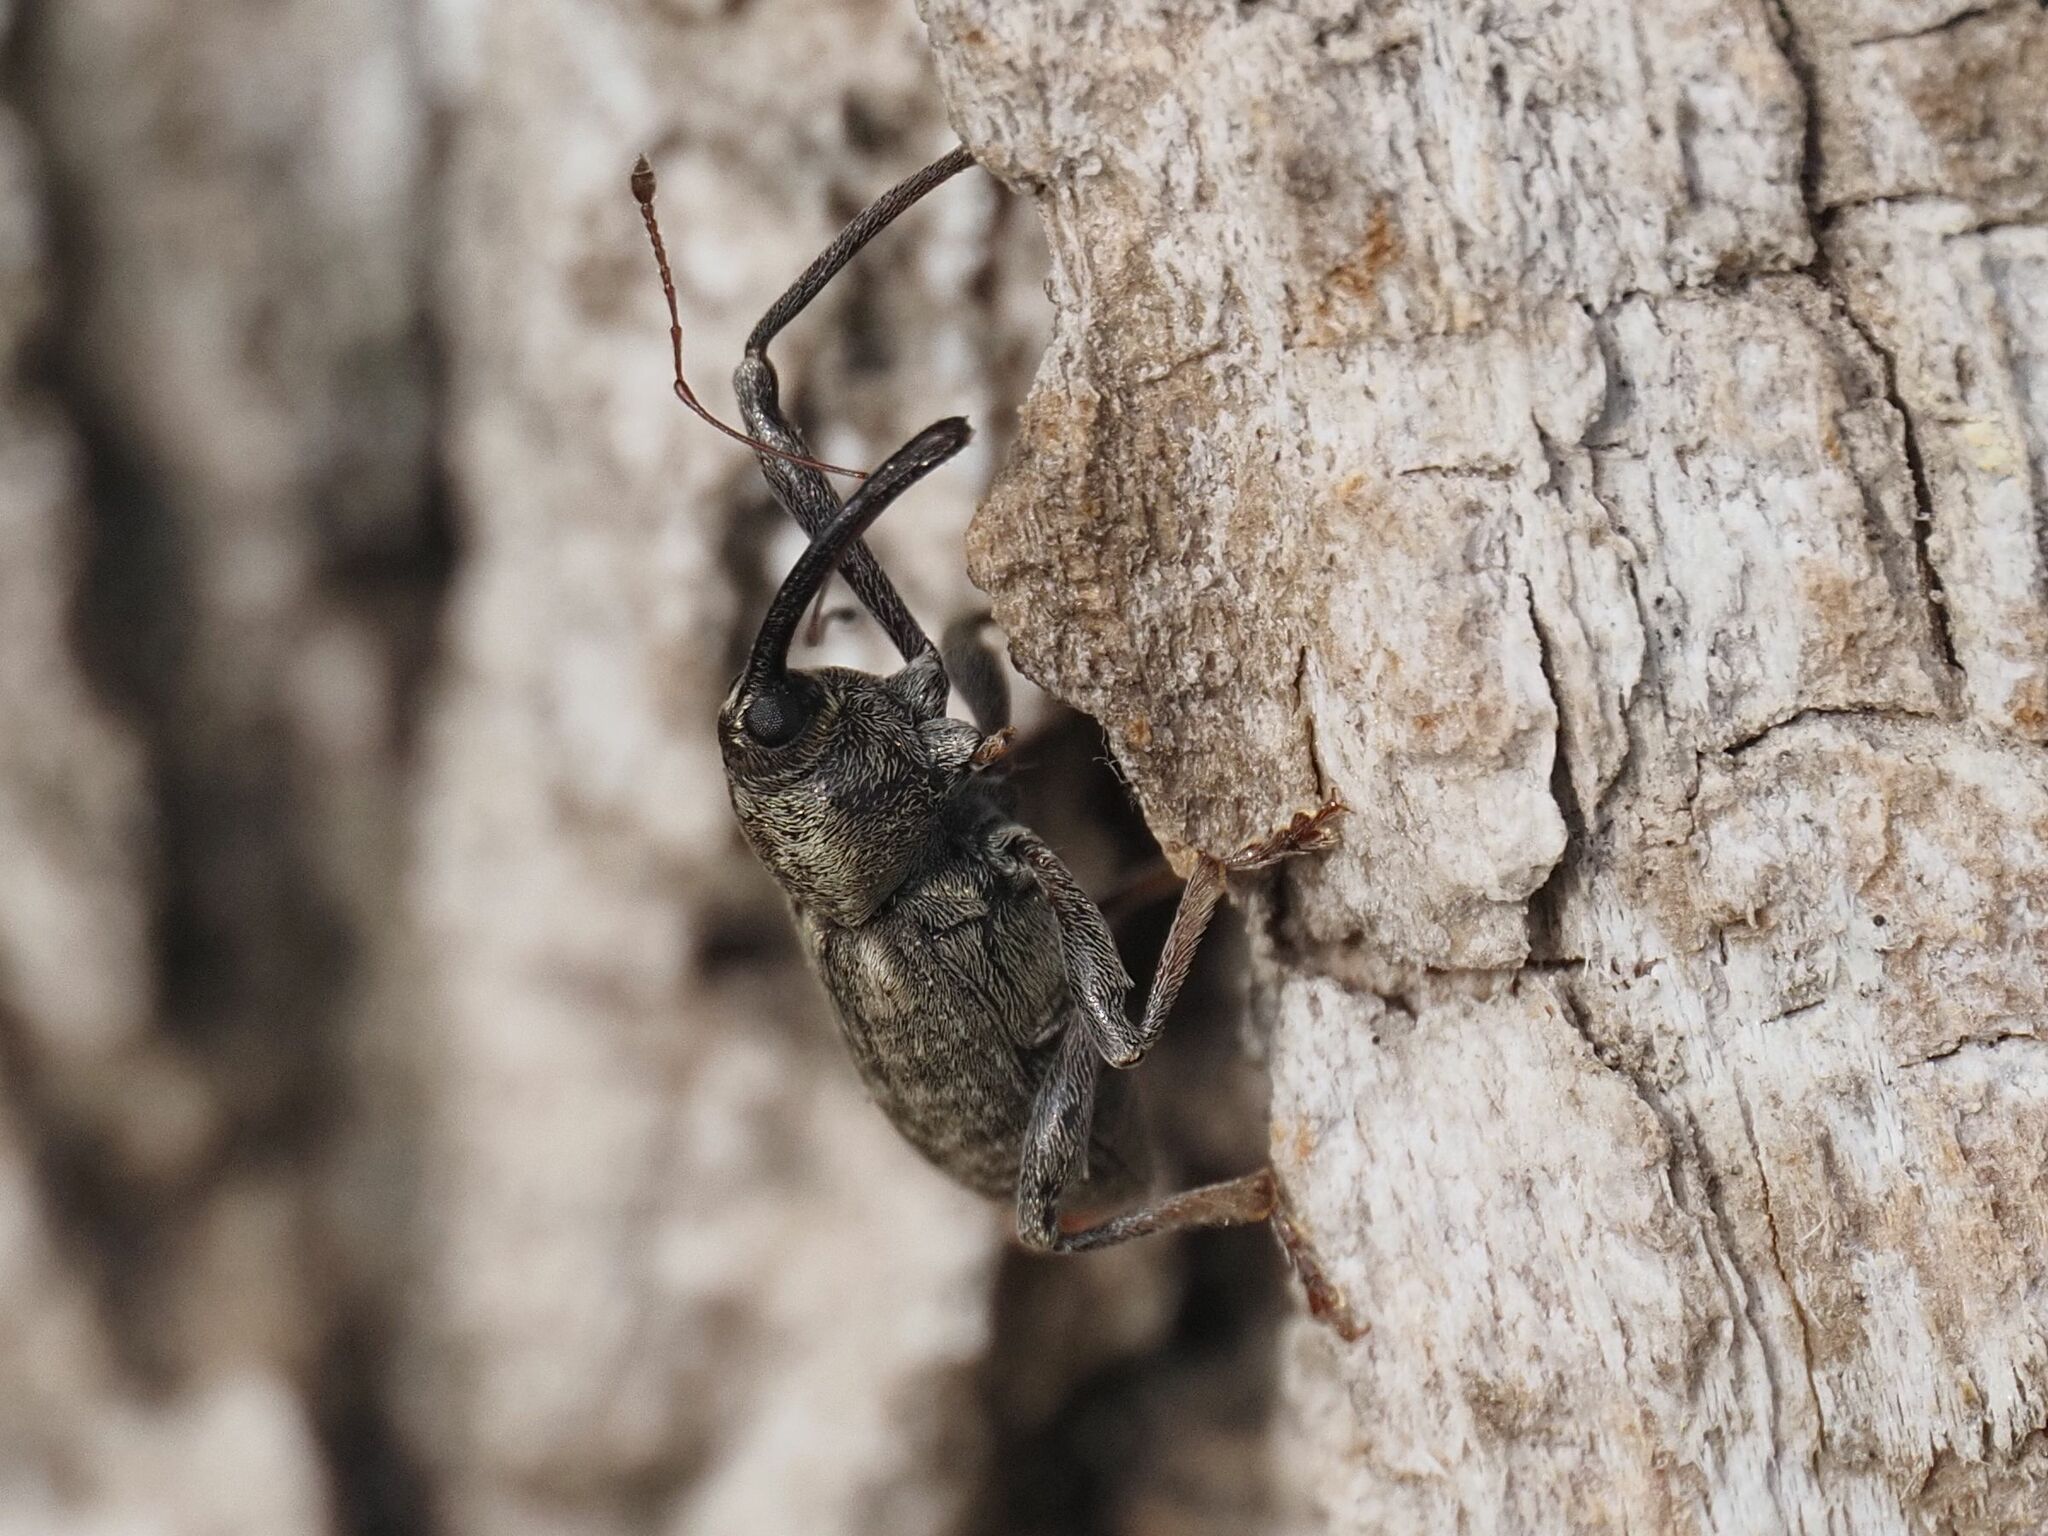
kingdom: Animalia
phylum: Arthropoda
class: Insecta
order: Coleoptera
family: Curculionidae
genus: Dorytomus
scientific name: Dorytomus longimanus
